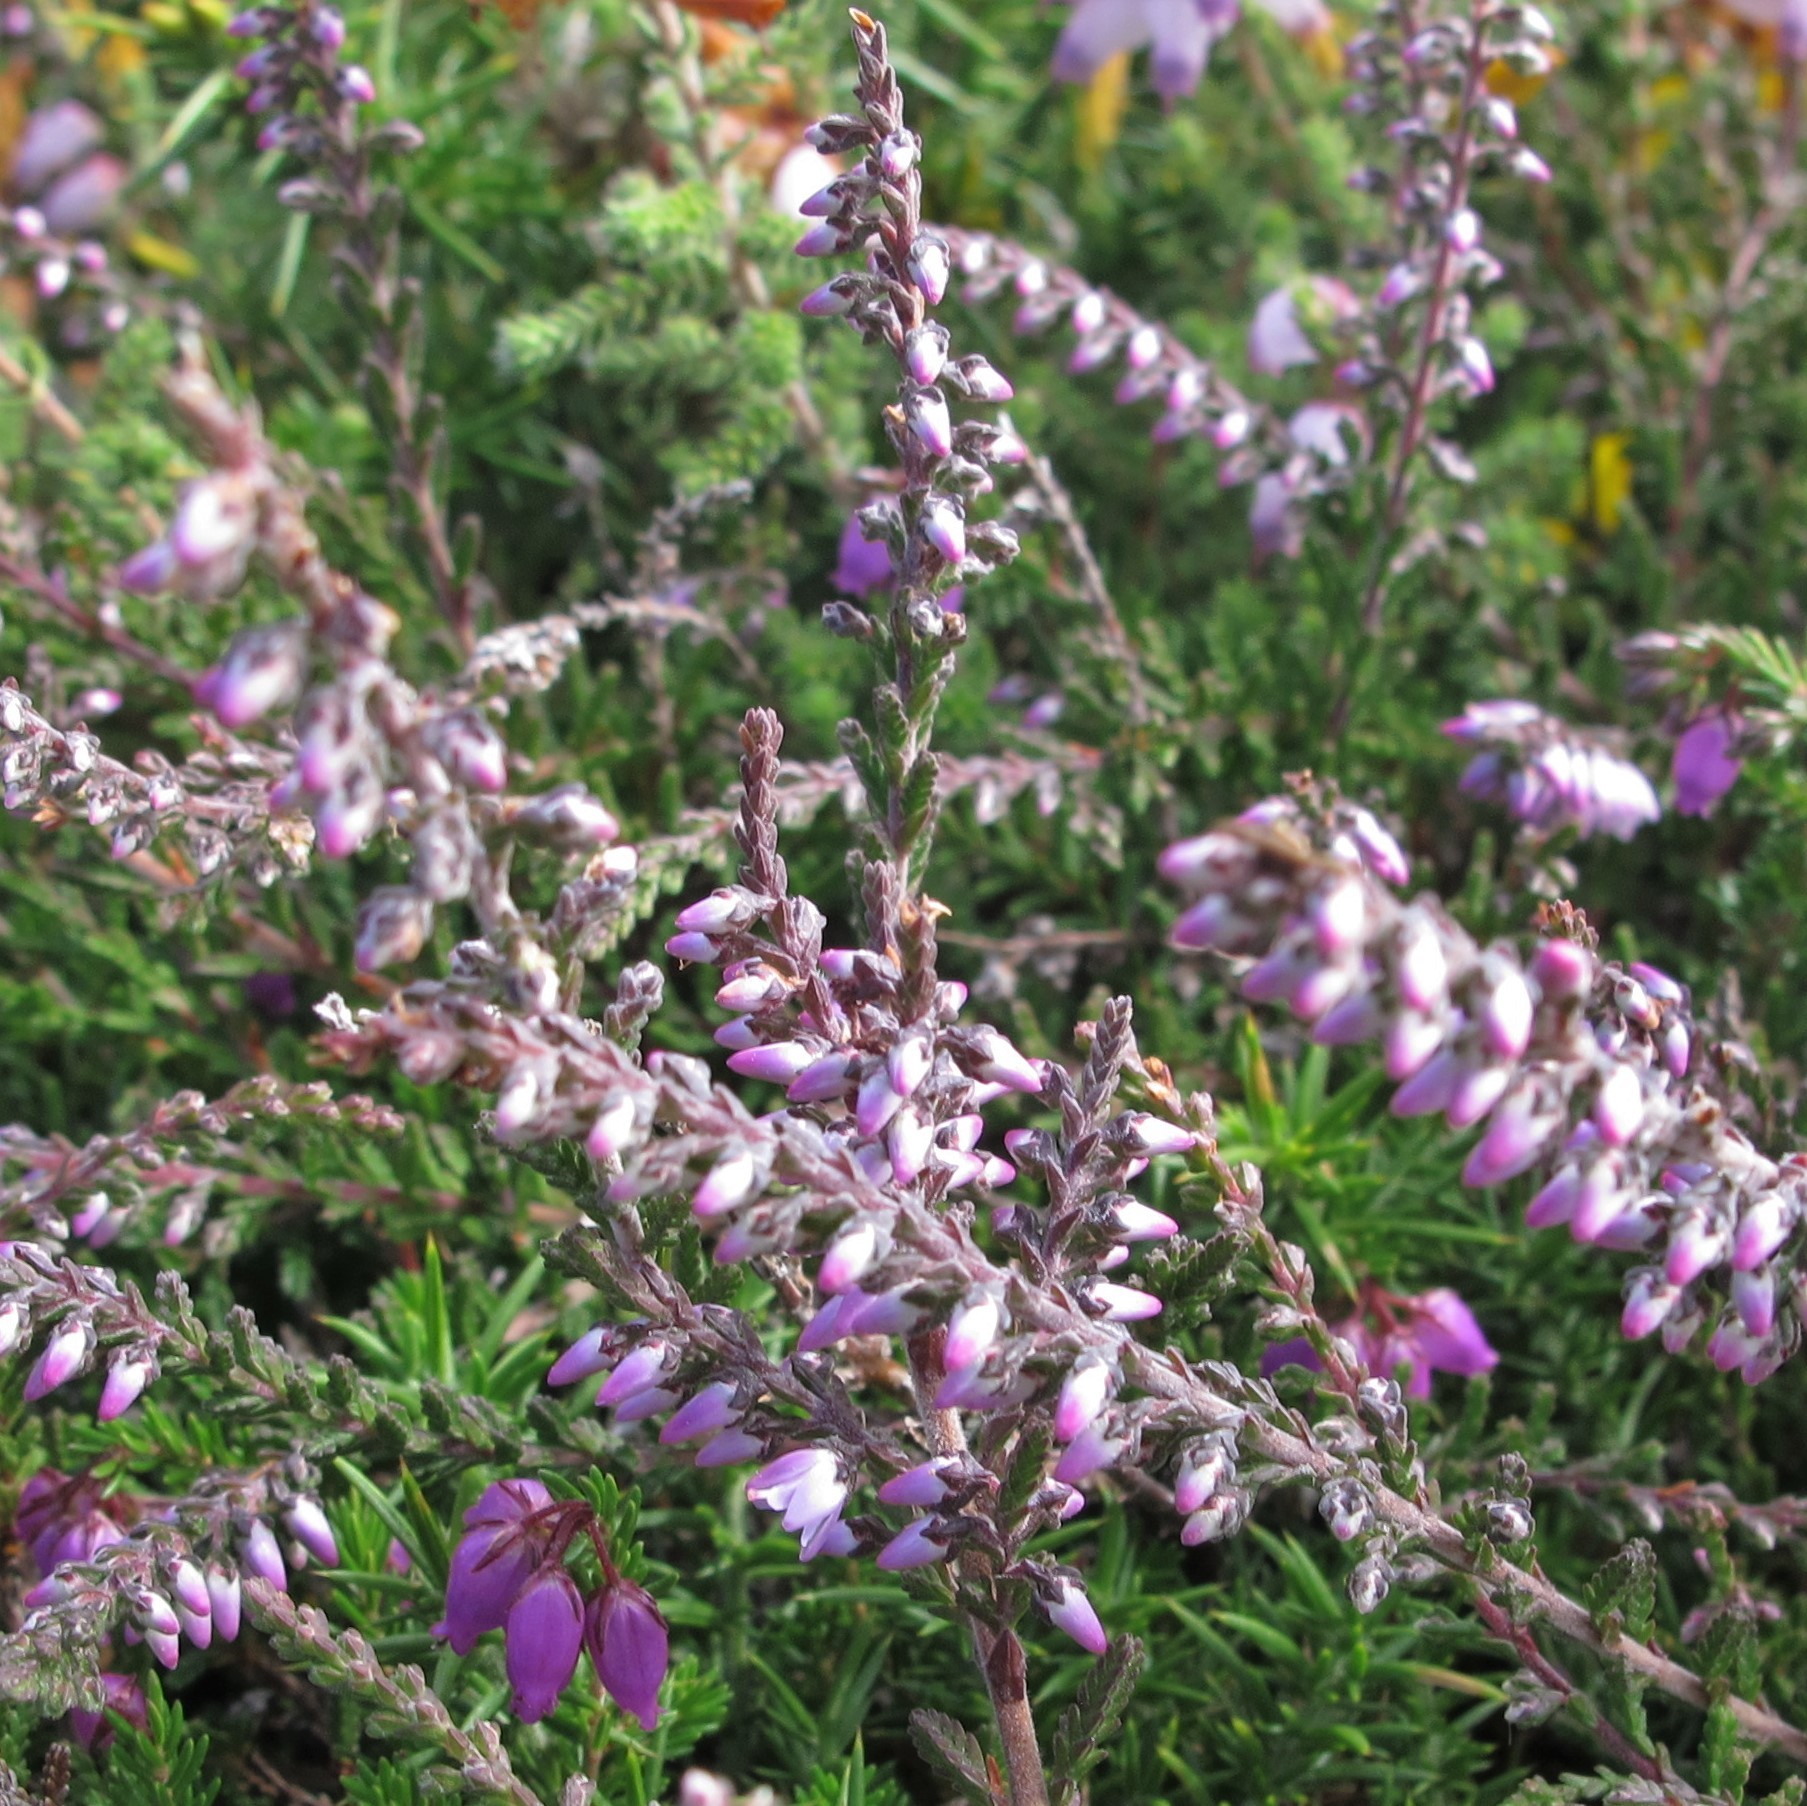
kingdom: Plantae
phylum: Tracheophyta
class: Magnoliopsida
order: Ericales
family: Ericaceae
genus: Calluna
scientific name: Calluna vulgaris
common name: Heather
